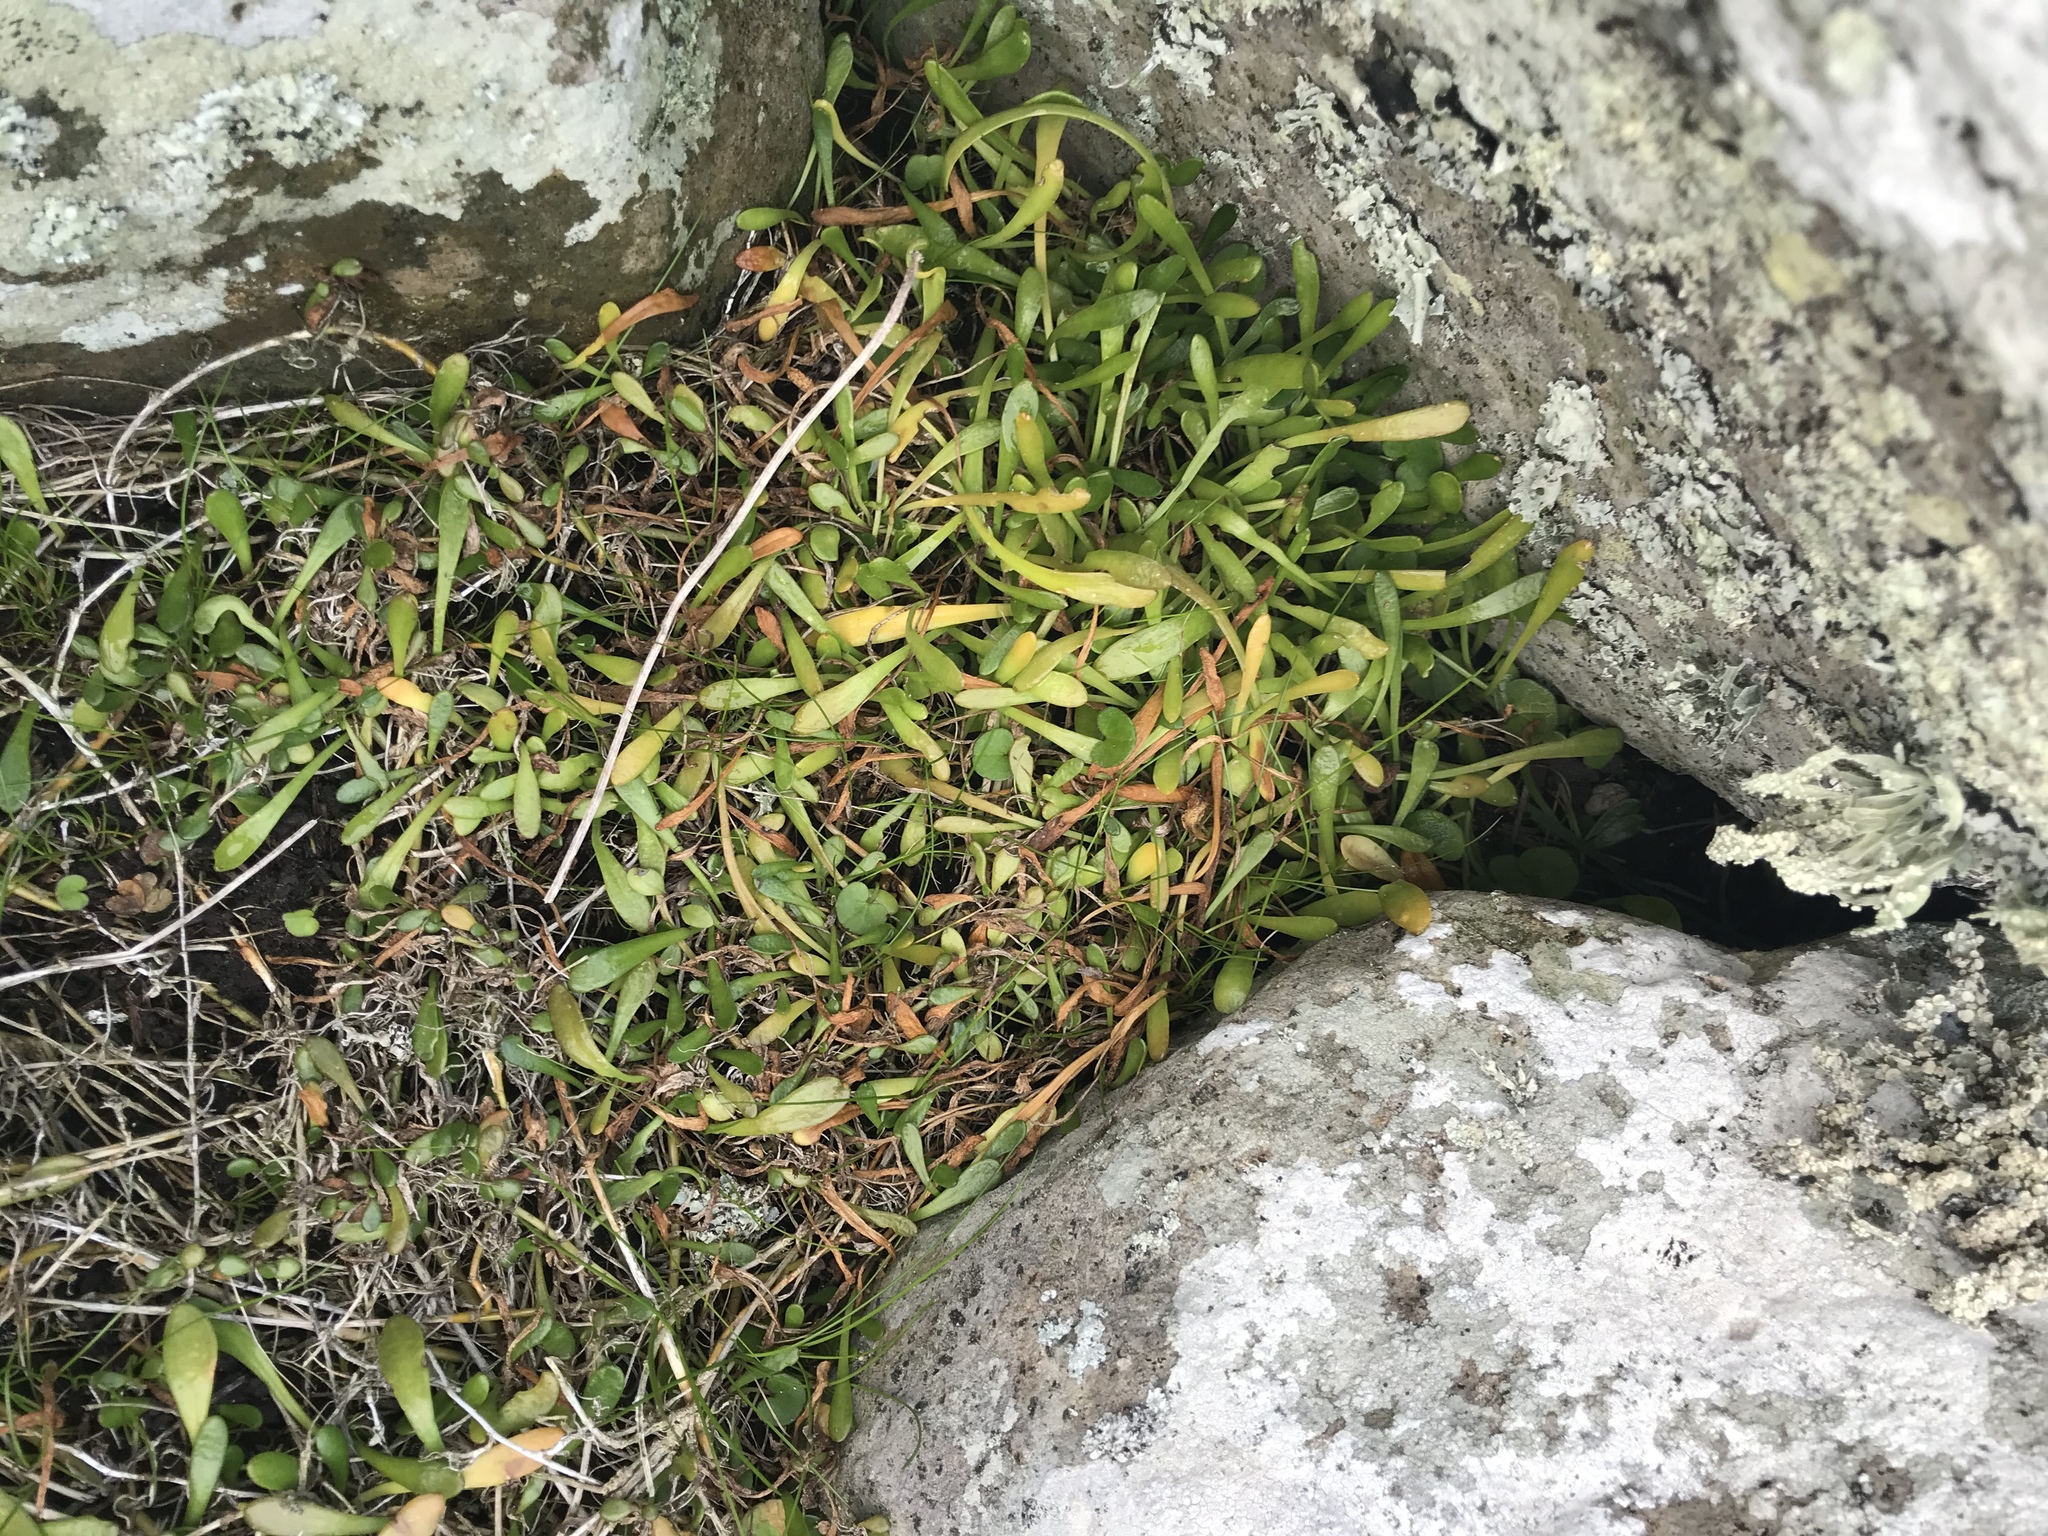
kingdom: Plantae
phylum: Tracheophyta
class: Magnoliopsida
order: Asterales
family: Goodeniaceae
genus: Goodenia
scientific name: Goodenia radicans
